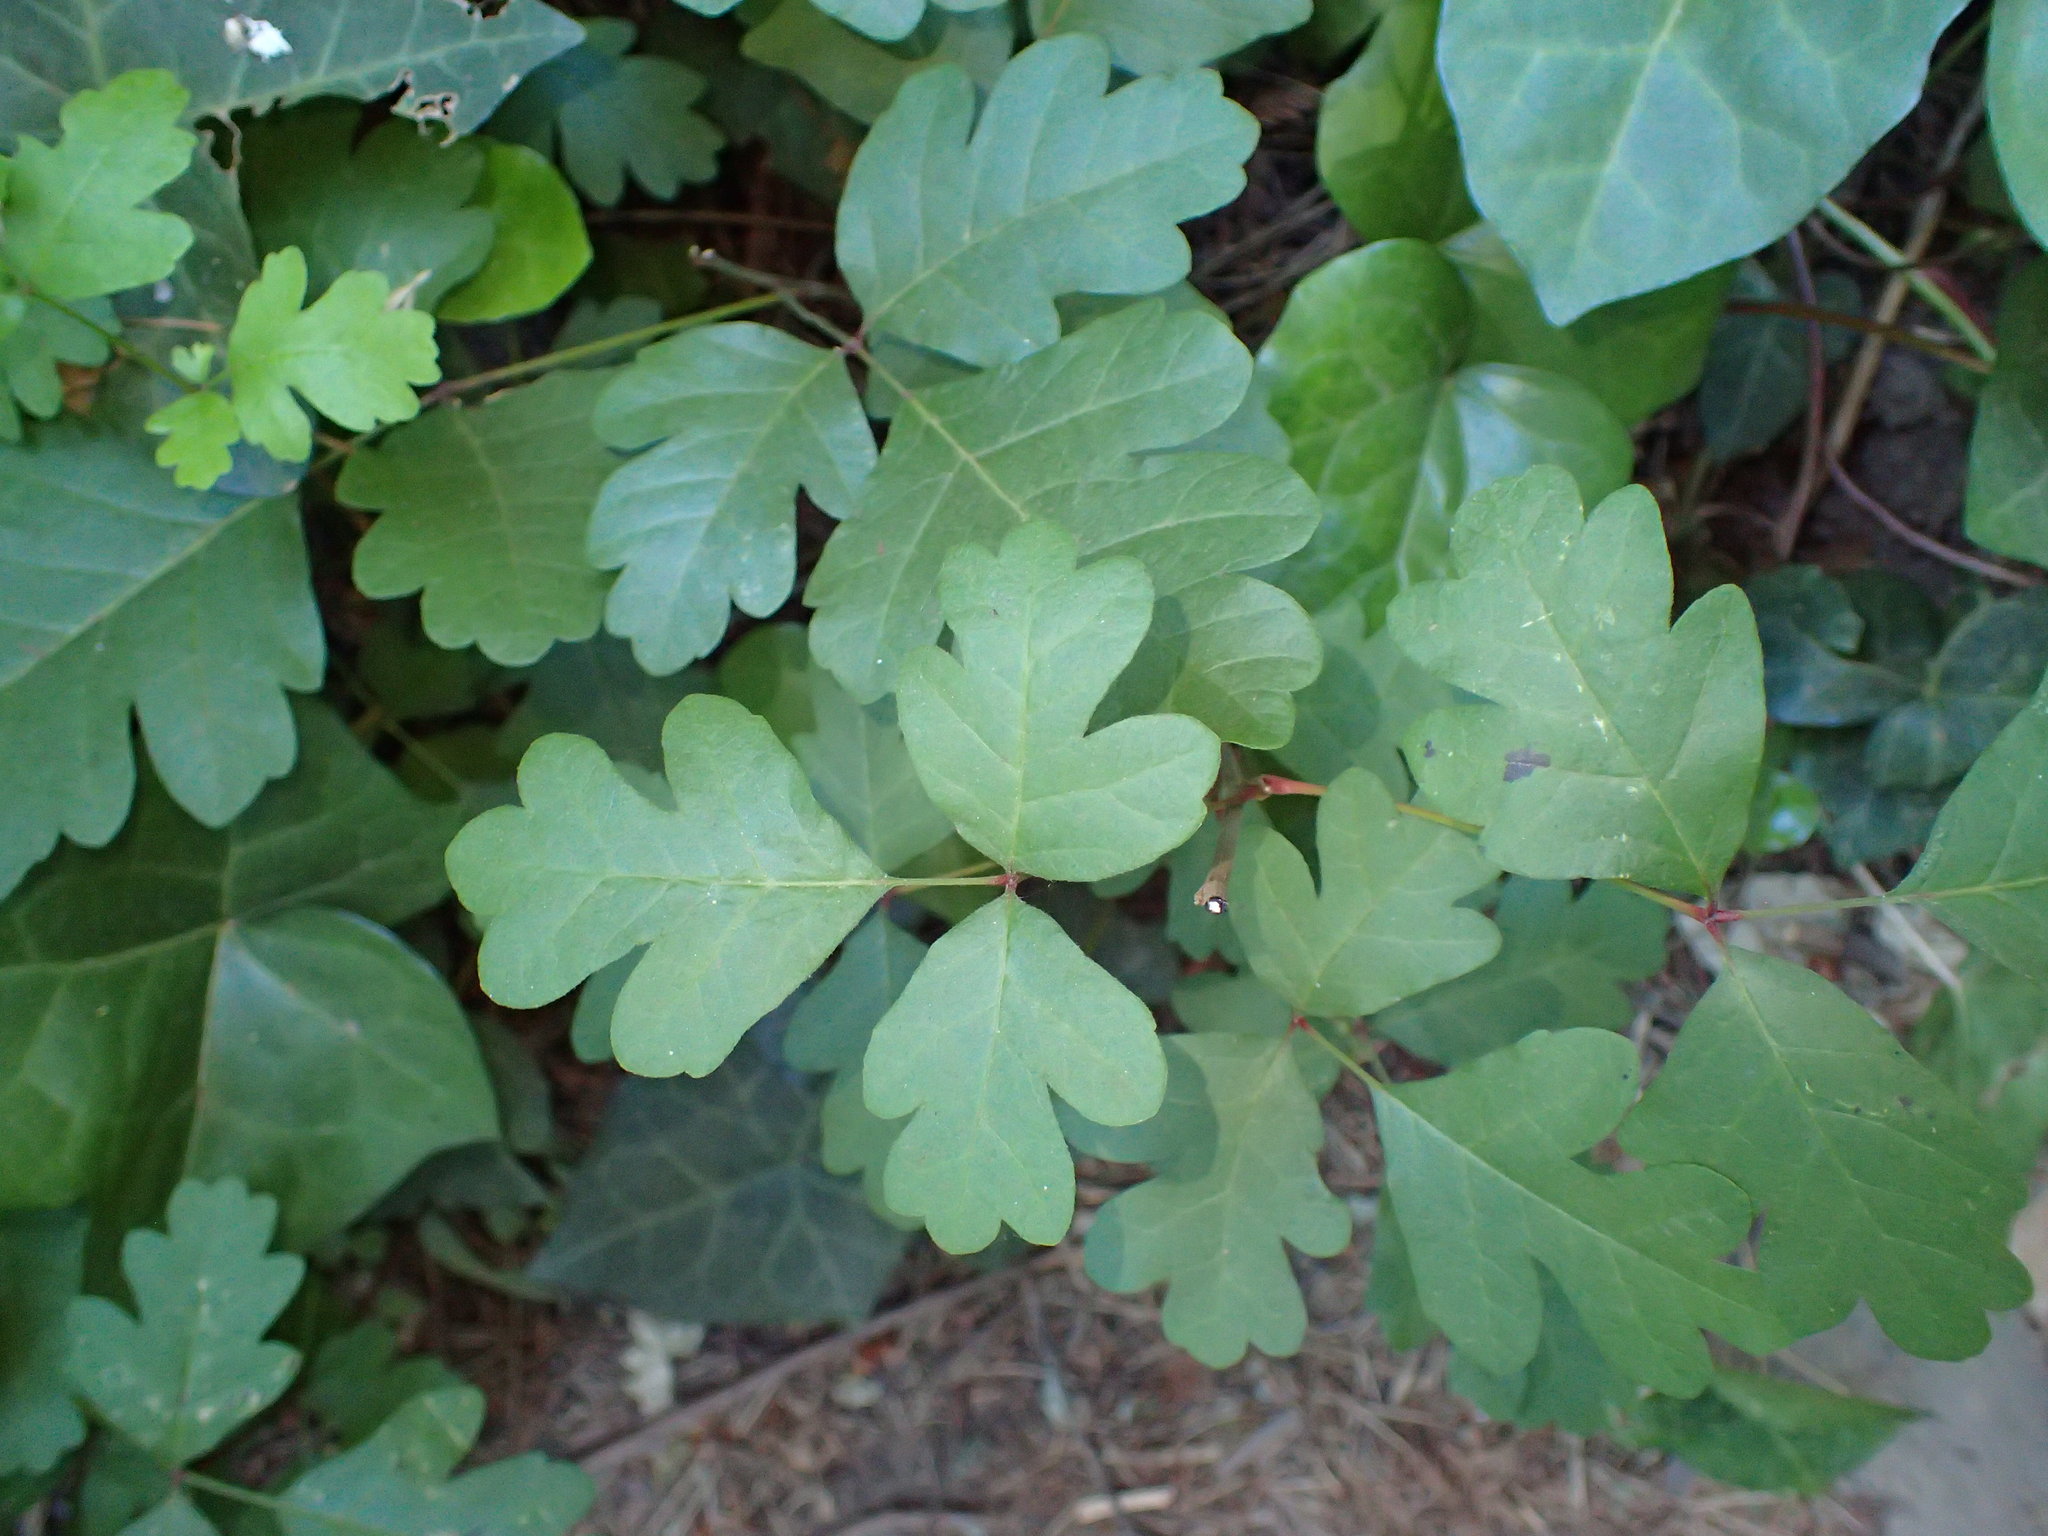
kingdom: Plantae
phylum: Tracheophyta
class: Magnoliopsida
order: Sapindales
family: Anacardiaceae
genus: Toxicodendron
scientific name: Toxicodendron diversilobum
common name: Pacific poison-oak
